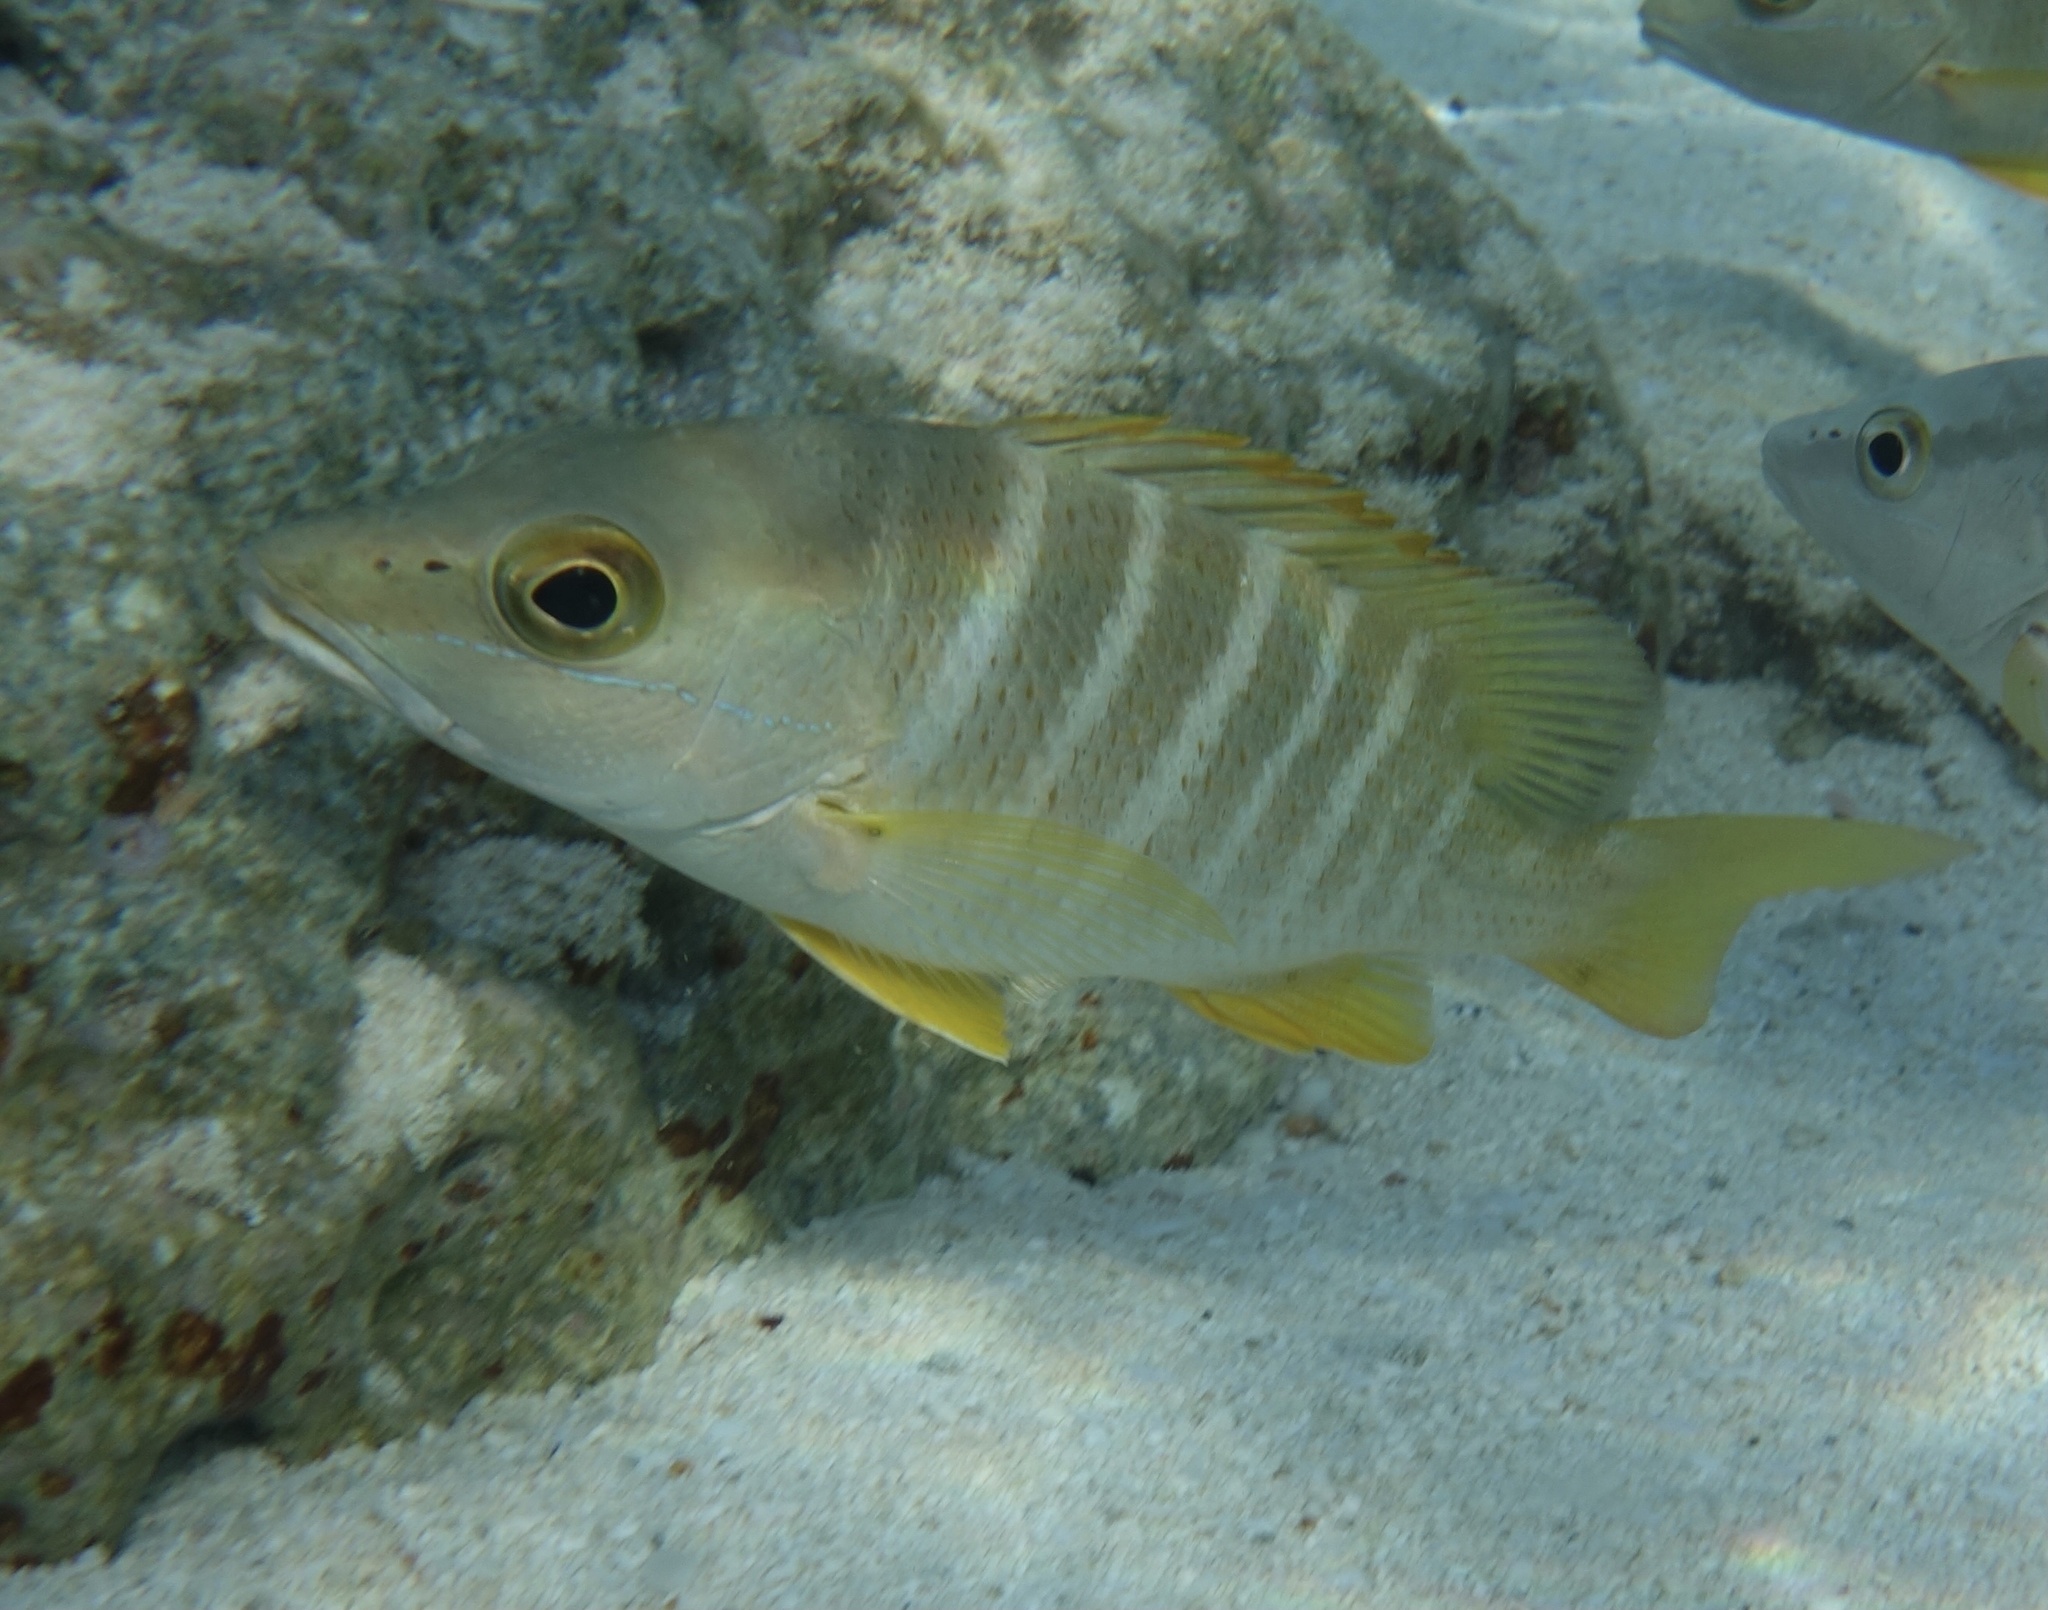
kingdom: Animalia
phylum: Chordata
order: Perciformes
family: Lutjanidae
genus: Lutjanus
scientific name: Lutjanus apodus
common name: Schoolmaster
